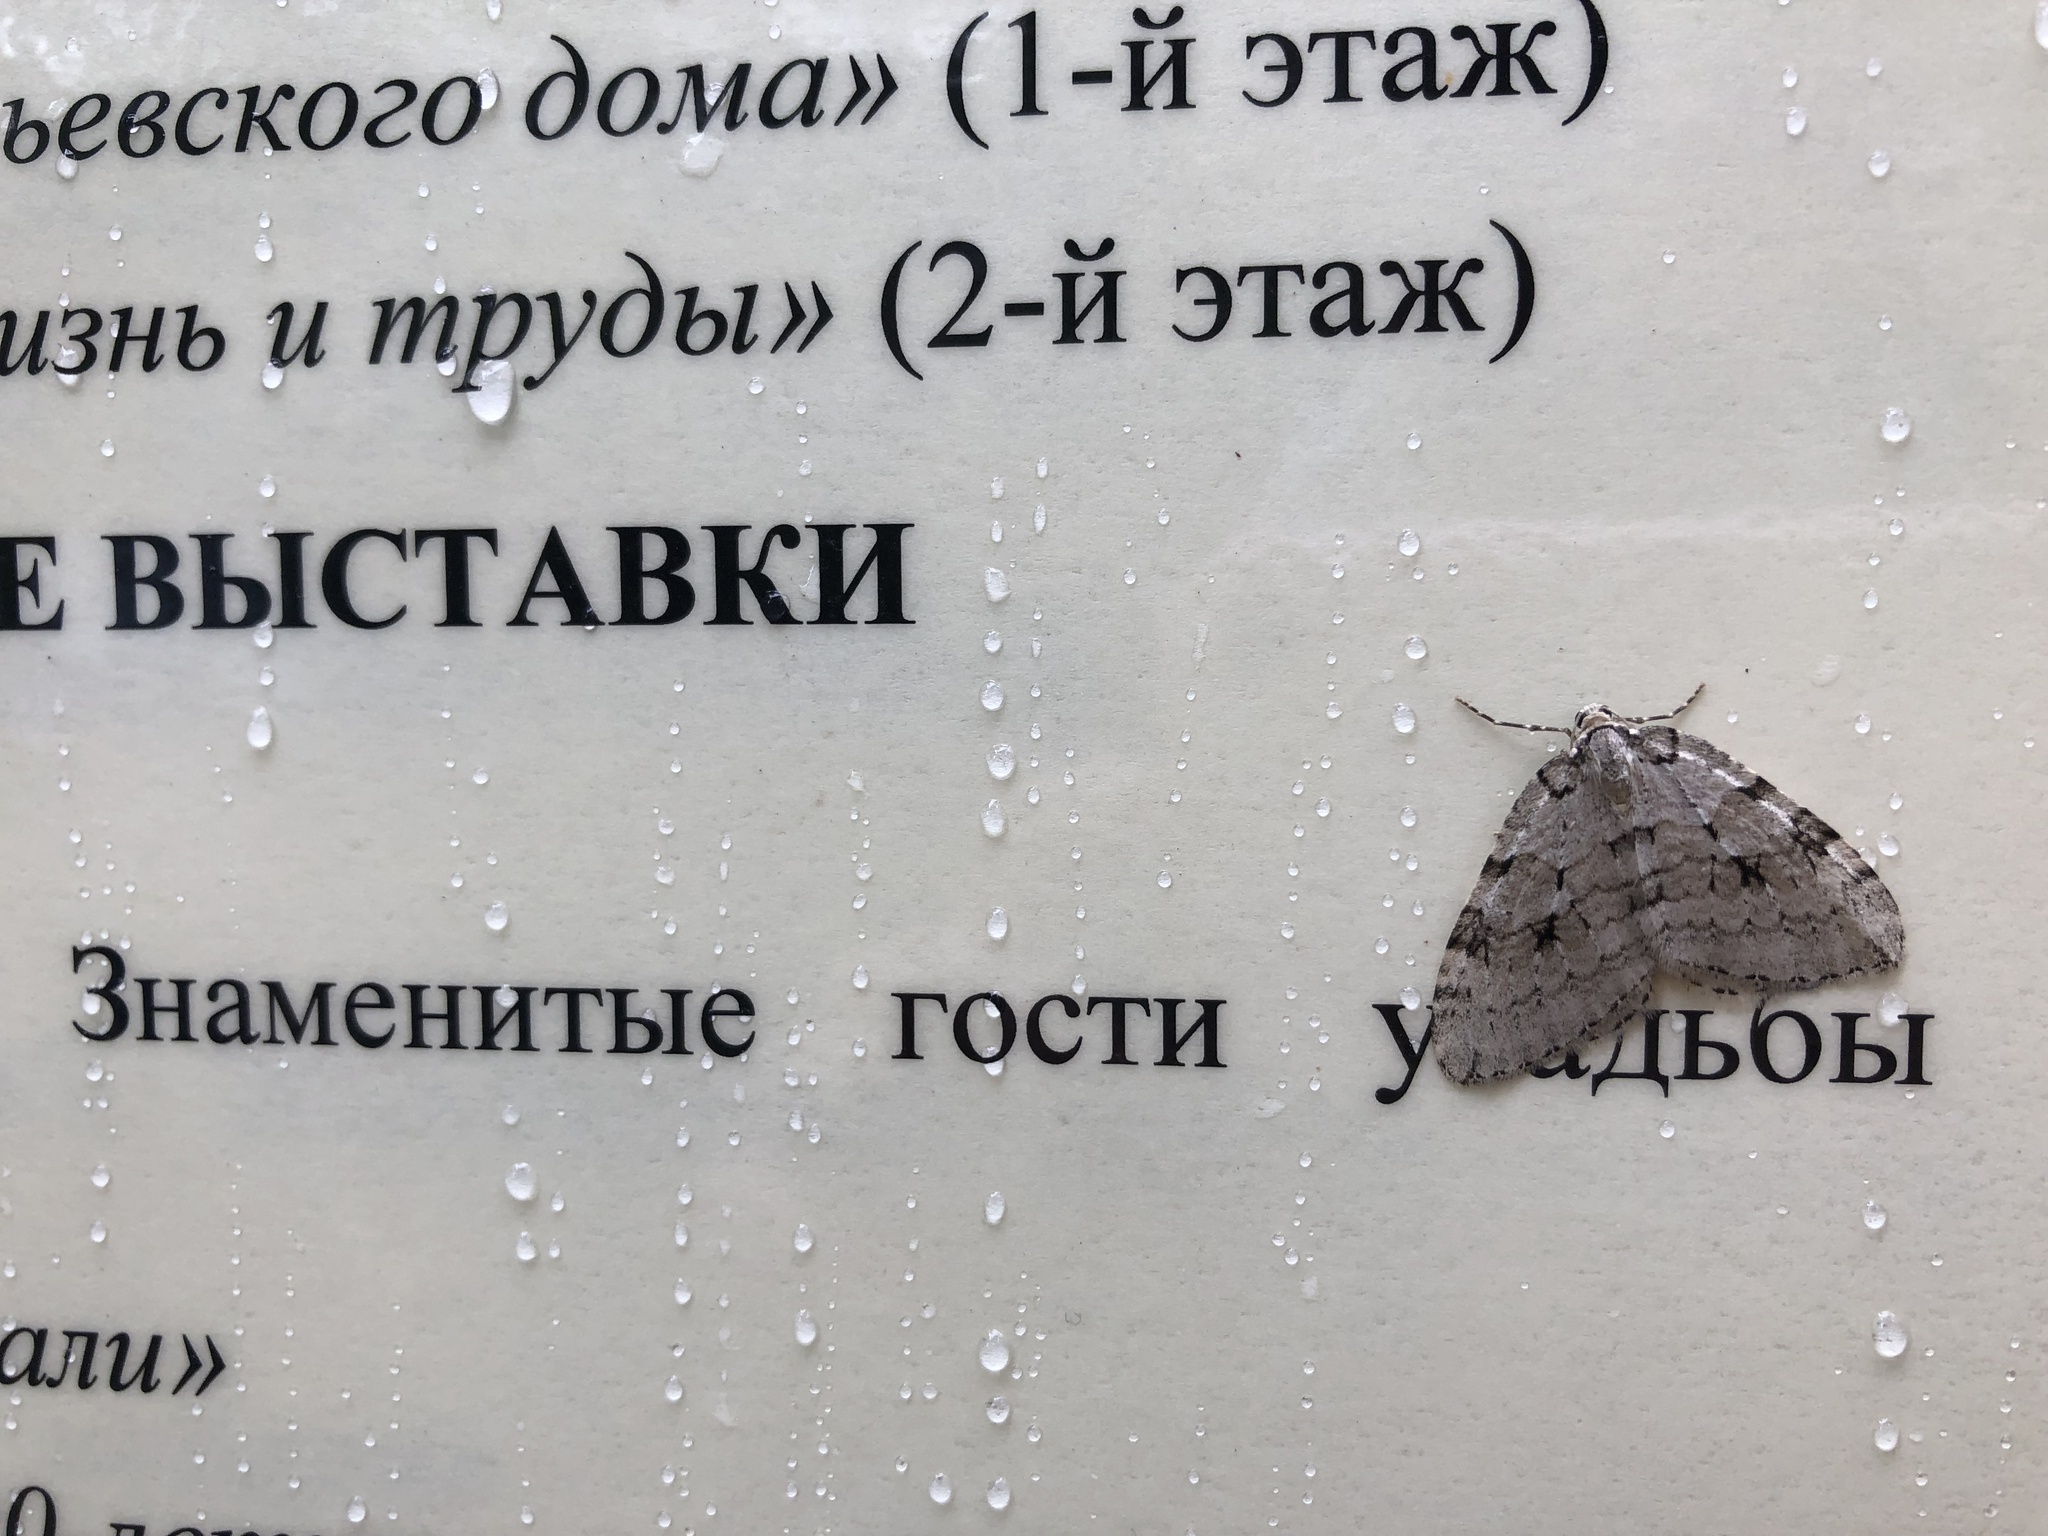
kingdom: Animalia
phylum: Arthropoda
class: Insecta
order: Lepidoptera
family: Geometridae
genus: Epirrita
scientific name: Epirrita autumnata
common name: Autumnal moth
